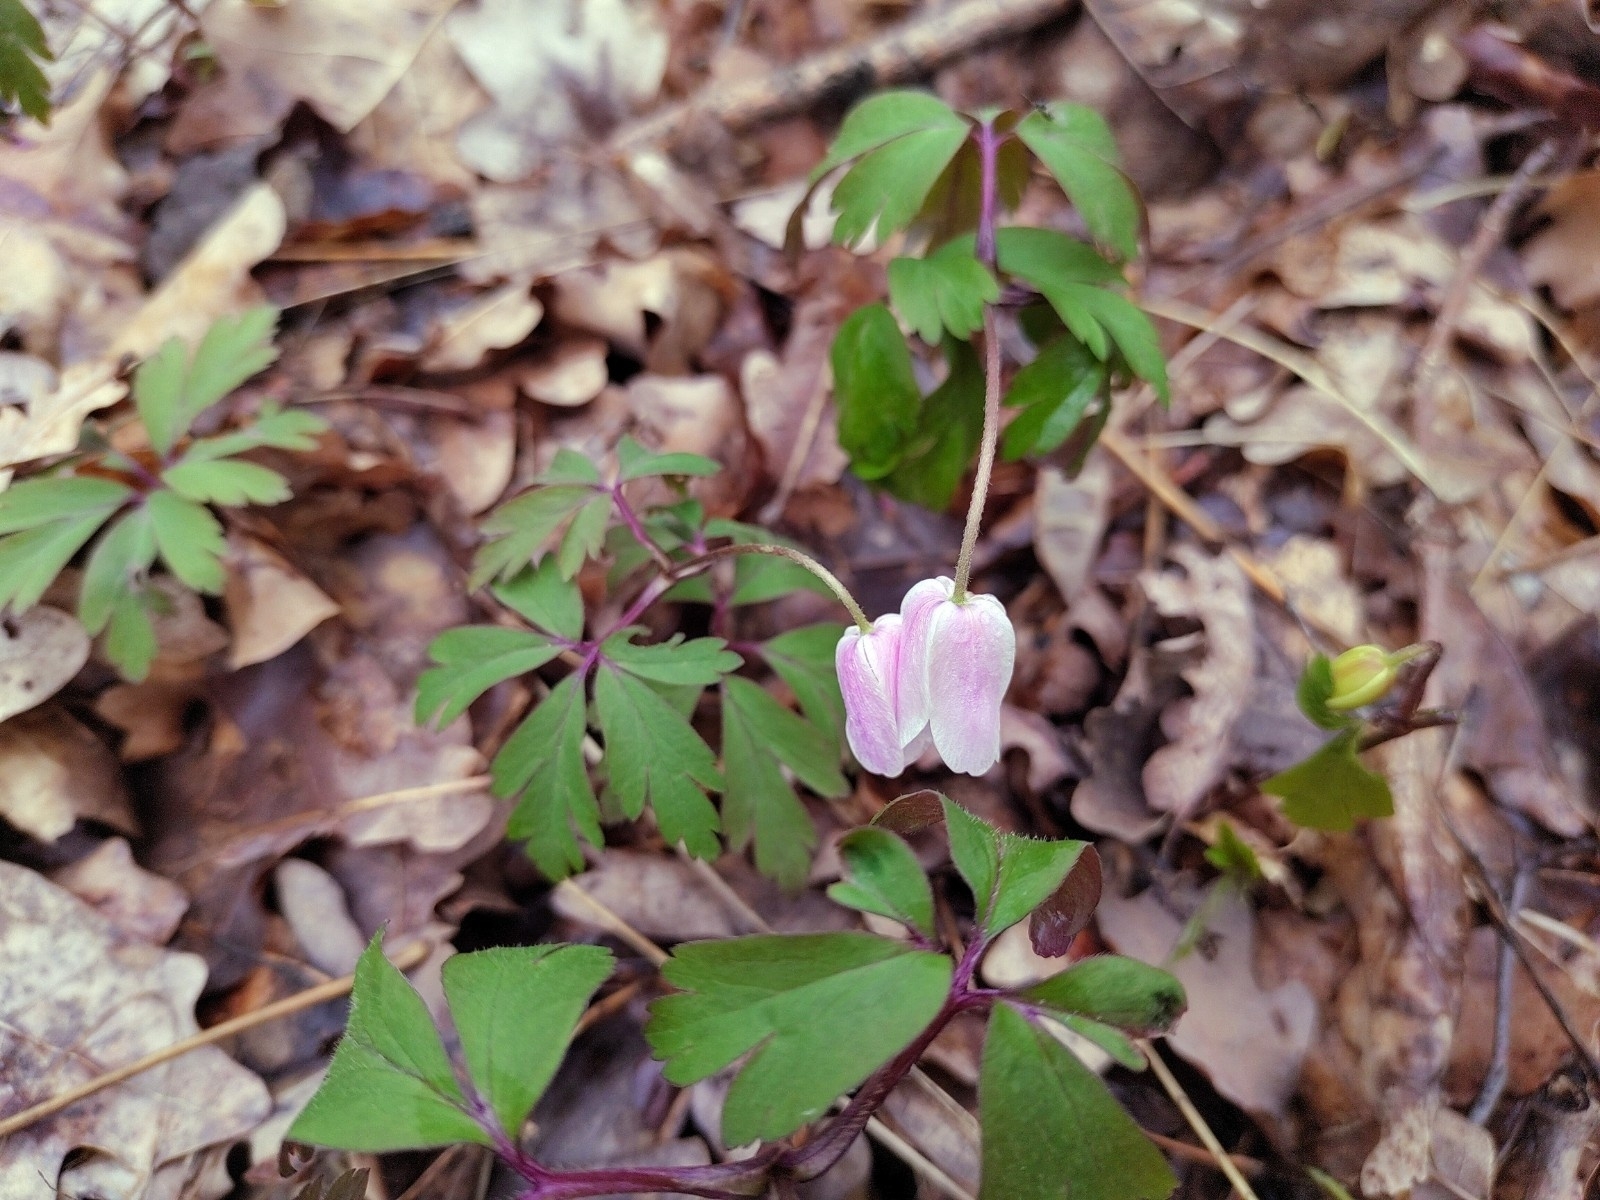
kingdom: Plantae
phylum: Tracheophyta
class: Magnoliopsida
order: Ranunculales
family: Ranunculaceae
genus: Anemone
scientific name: Anemone nemorosa
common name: Wood anemone
